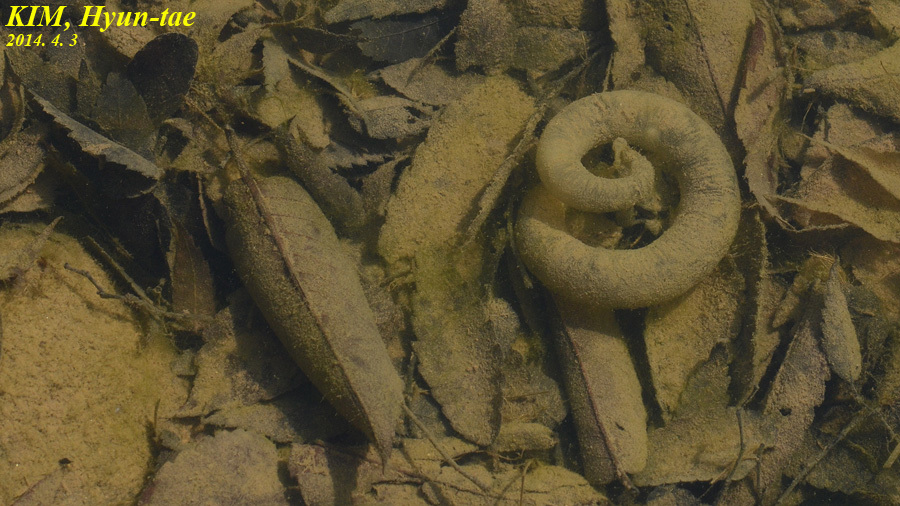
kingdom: Animalia
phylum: Chordata
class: Amphibia
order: Caudata
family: Hynobiidae
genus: Hynobius
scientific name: Hynobius leechii
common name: Gensan salamander
